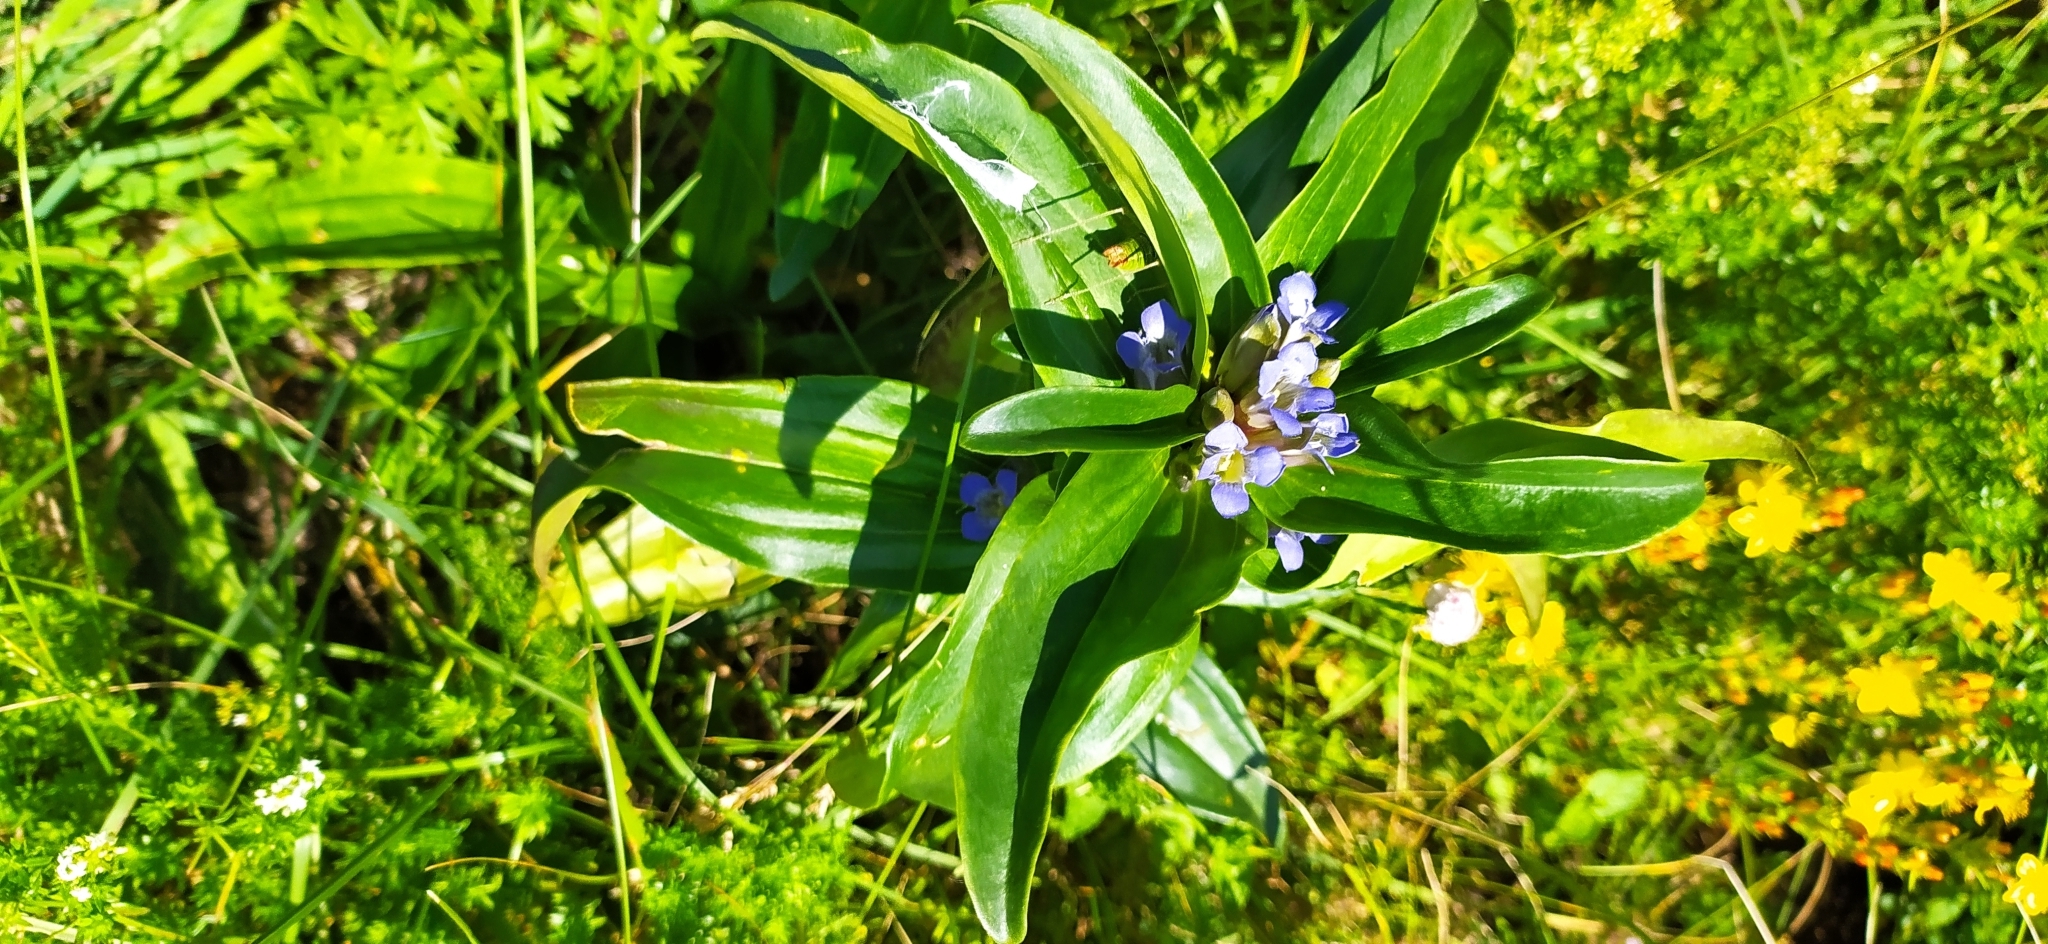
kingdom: Plantae
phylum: Tracheophyta
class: Magnoliopsida
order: Gentianales
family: Gentianaceae
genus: Gentiana
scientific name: Gentiana cruciata
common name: Cross gentian
